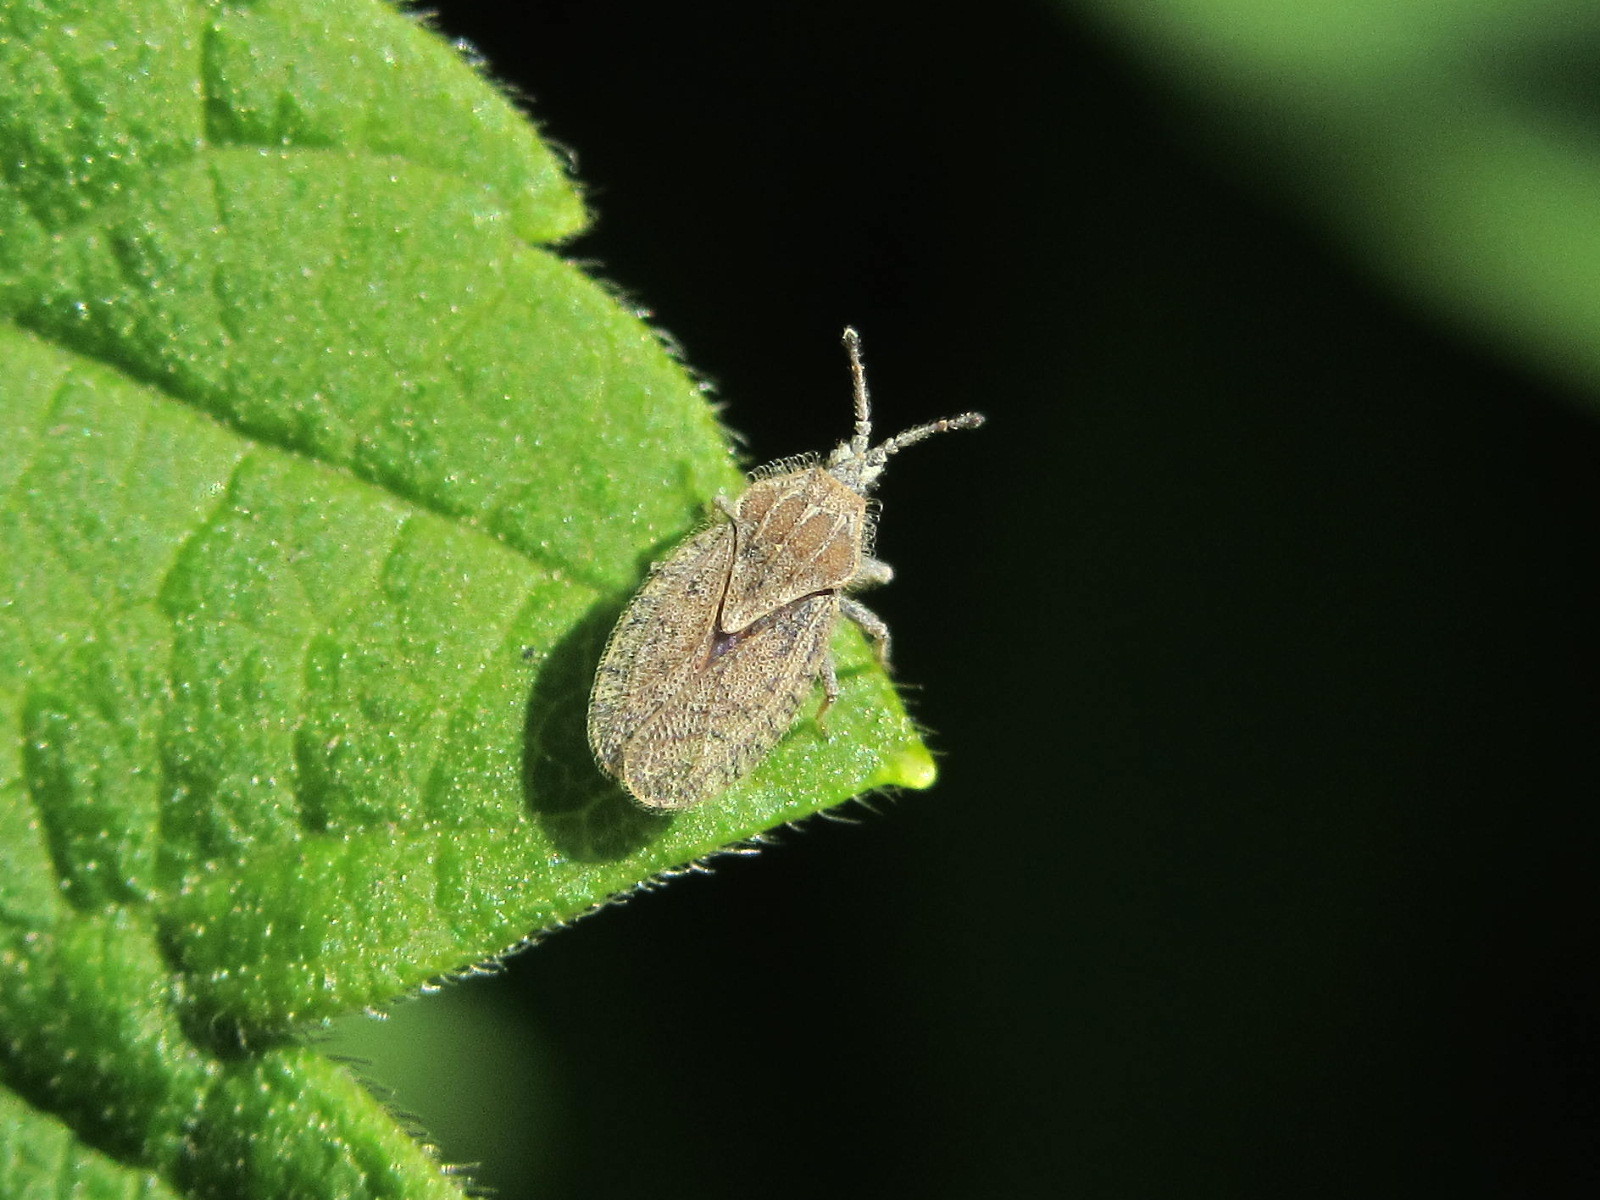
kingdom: Animalia
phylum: Arthropoda
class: Insecta
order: Hemiptera
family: Tingidae
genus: Tingis
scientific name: Tingis pilosa
